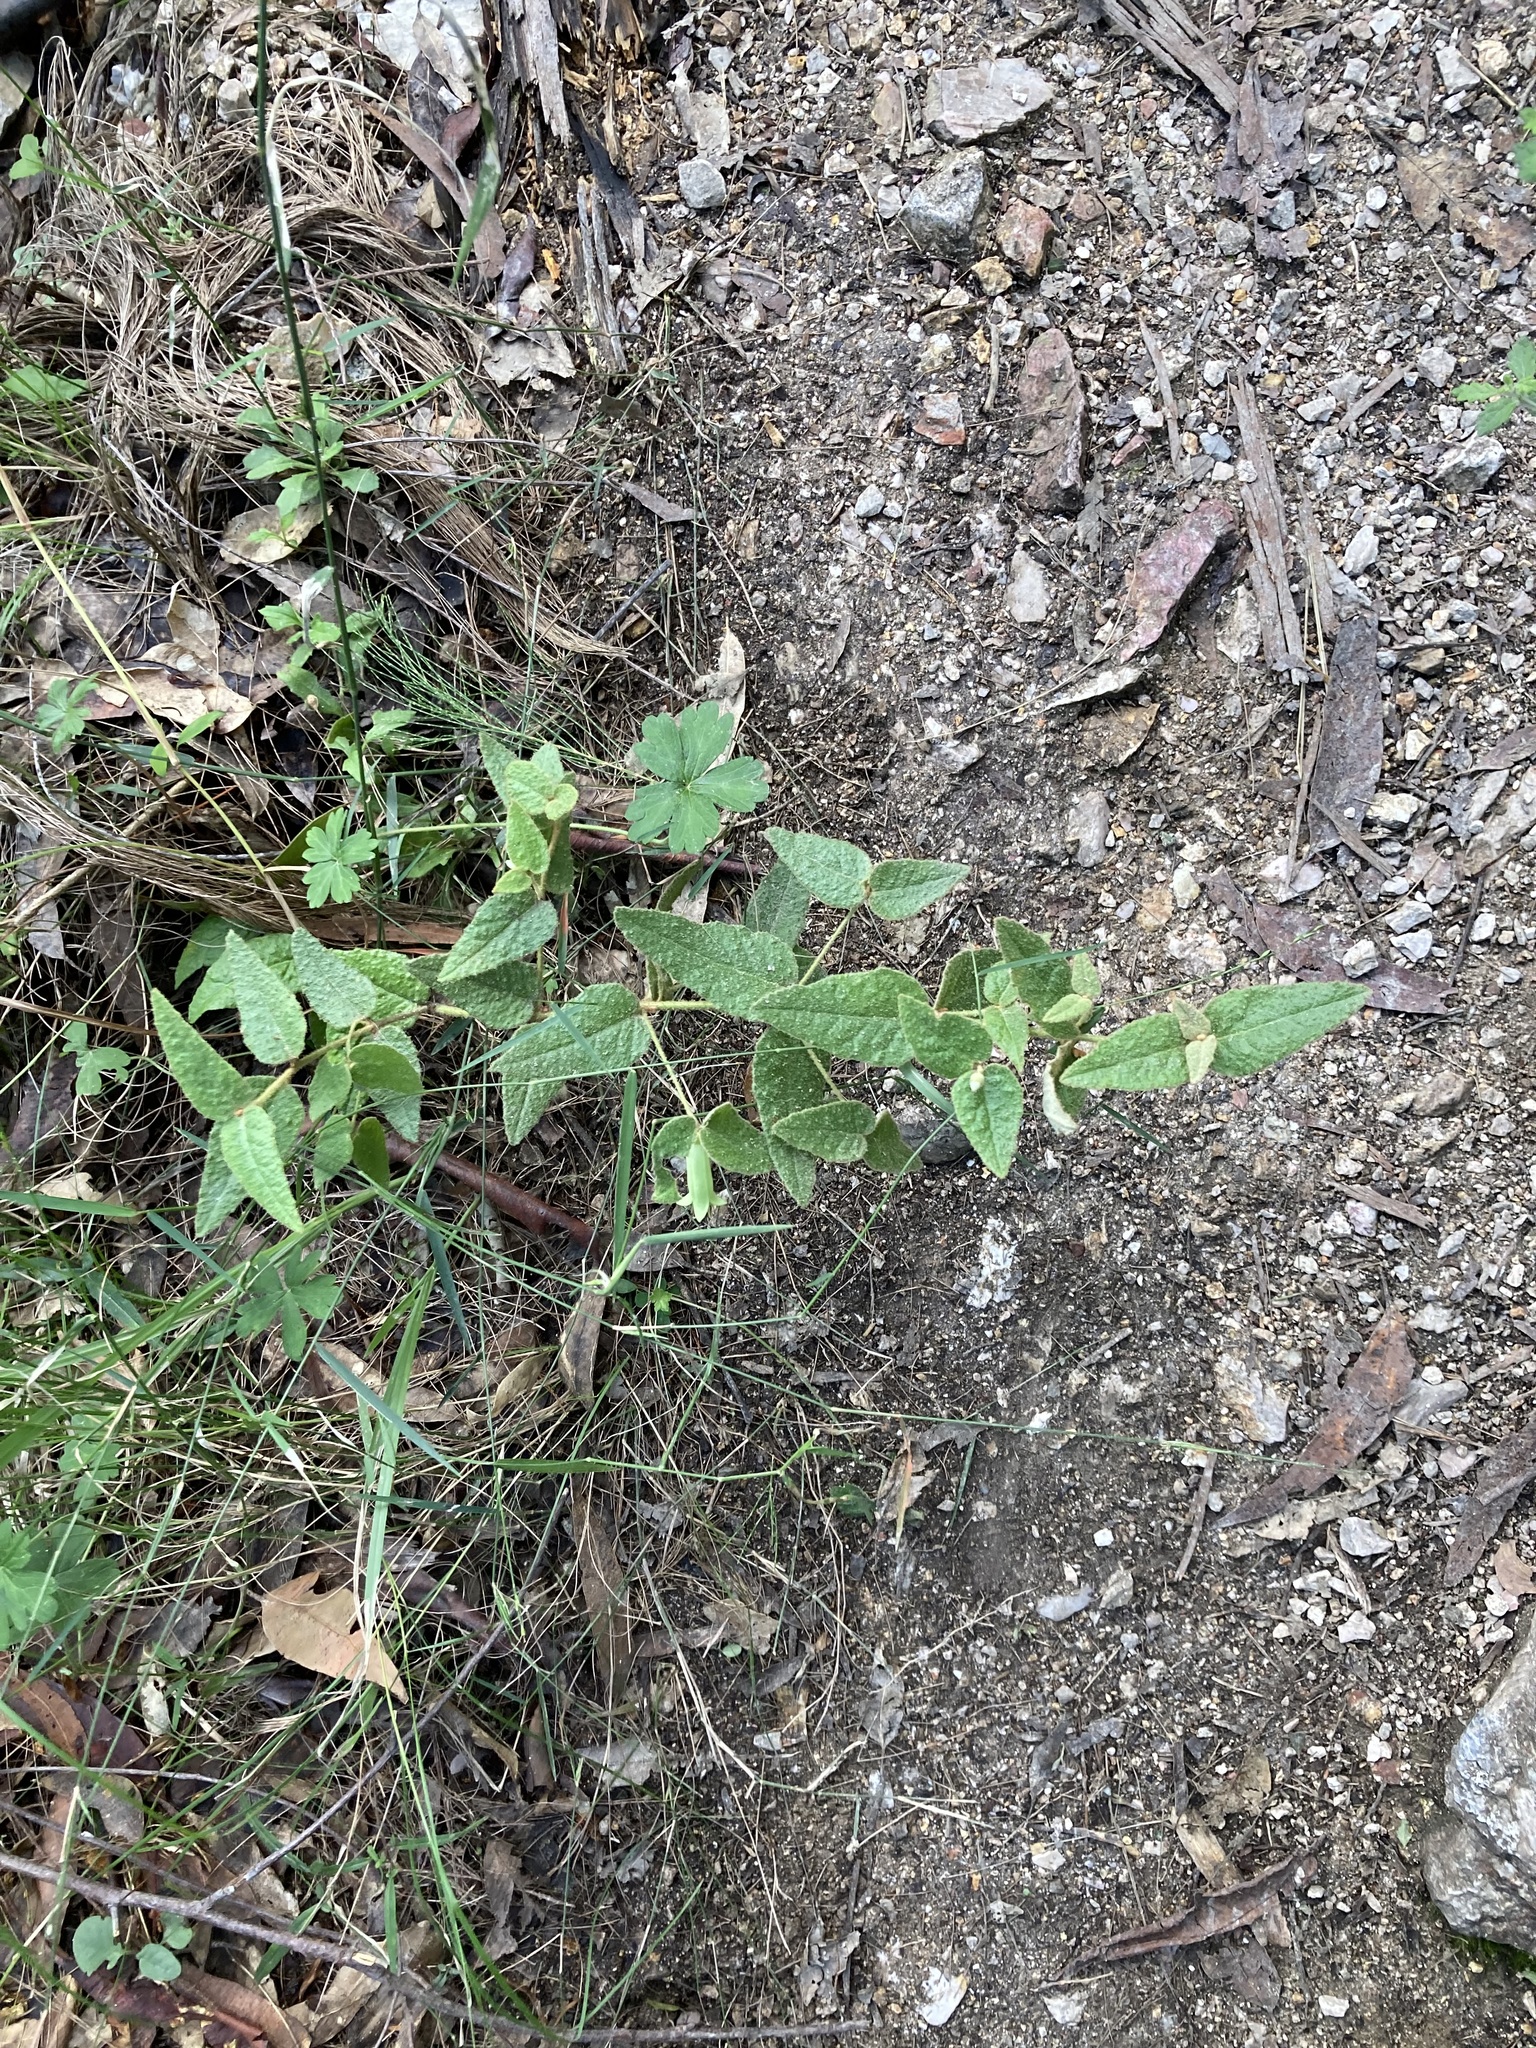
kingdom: Plantae
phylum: Tracheophyta
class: Magnoliopsida
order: Sapindales
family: Rutaceae
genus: Correa
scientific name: Correa reflexa
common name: Common correa
